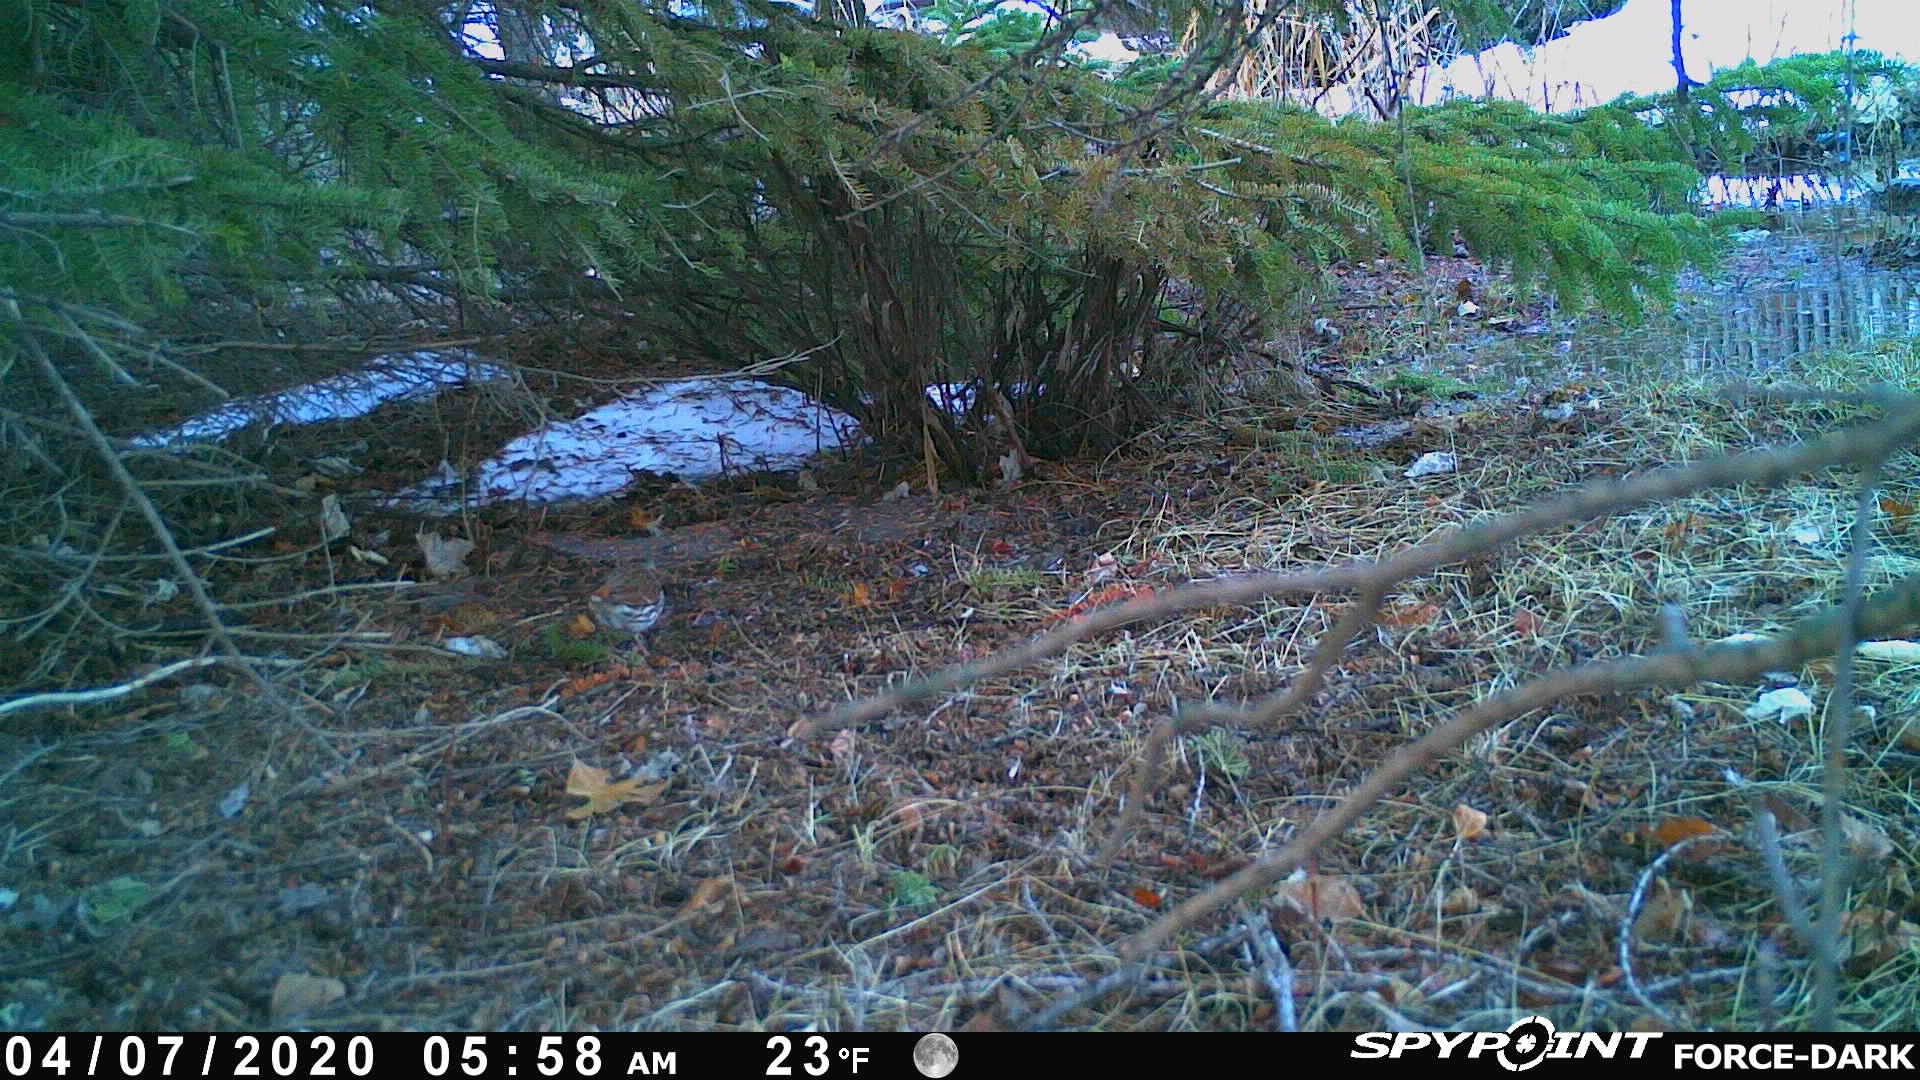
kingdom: Animalia
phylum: Chordata
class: Aves
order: Passeriformes
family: Passerellidae
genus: Passerella
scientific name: Passerella iliaca
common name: Fox sparrow
